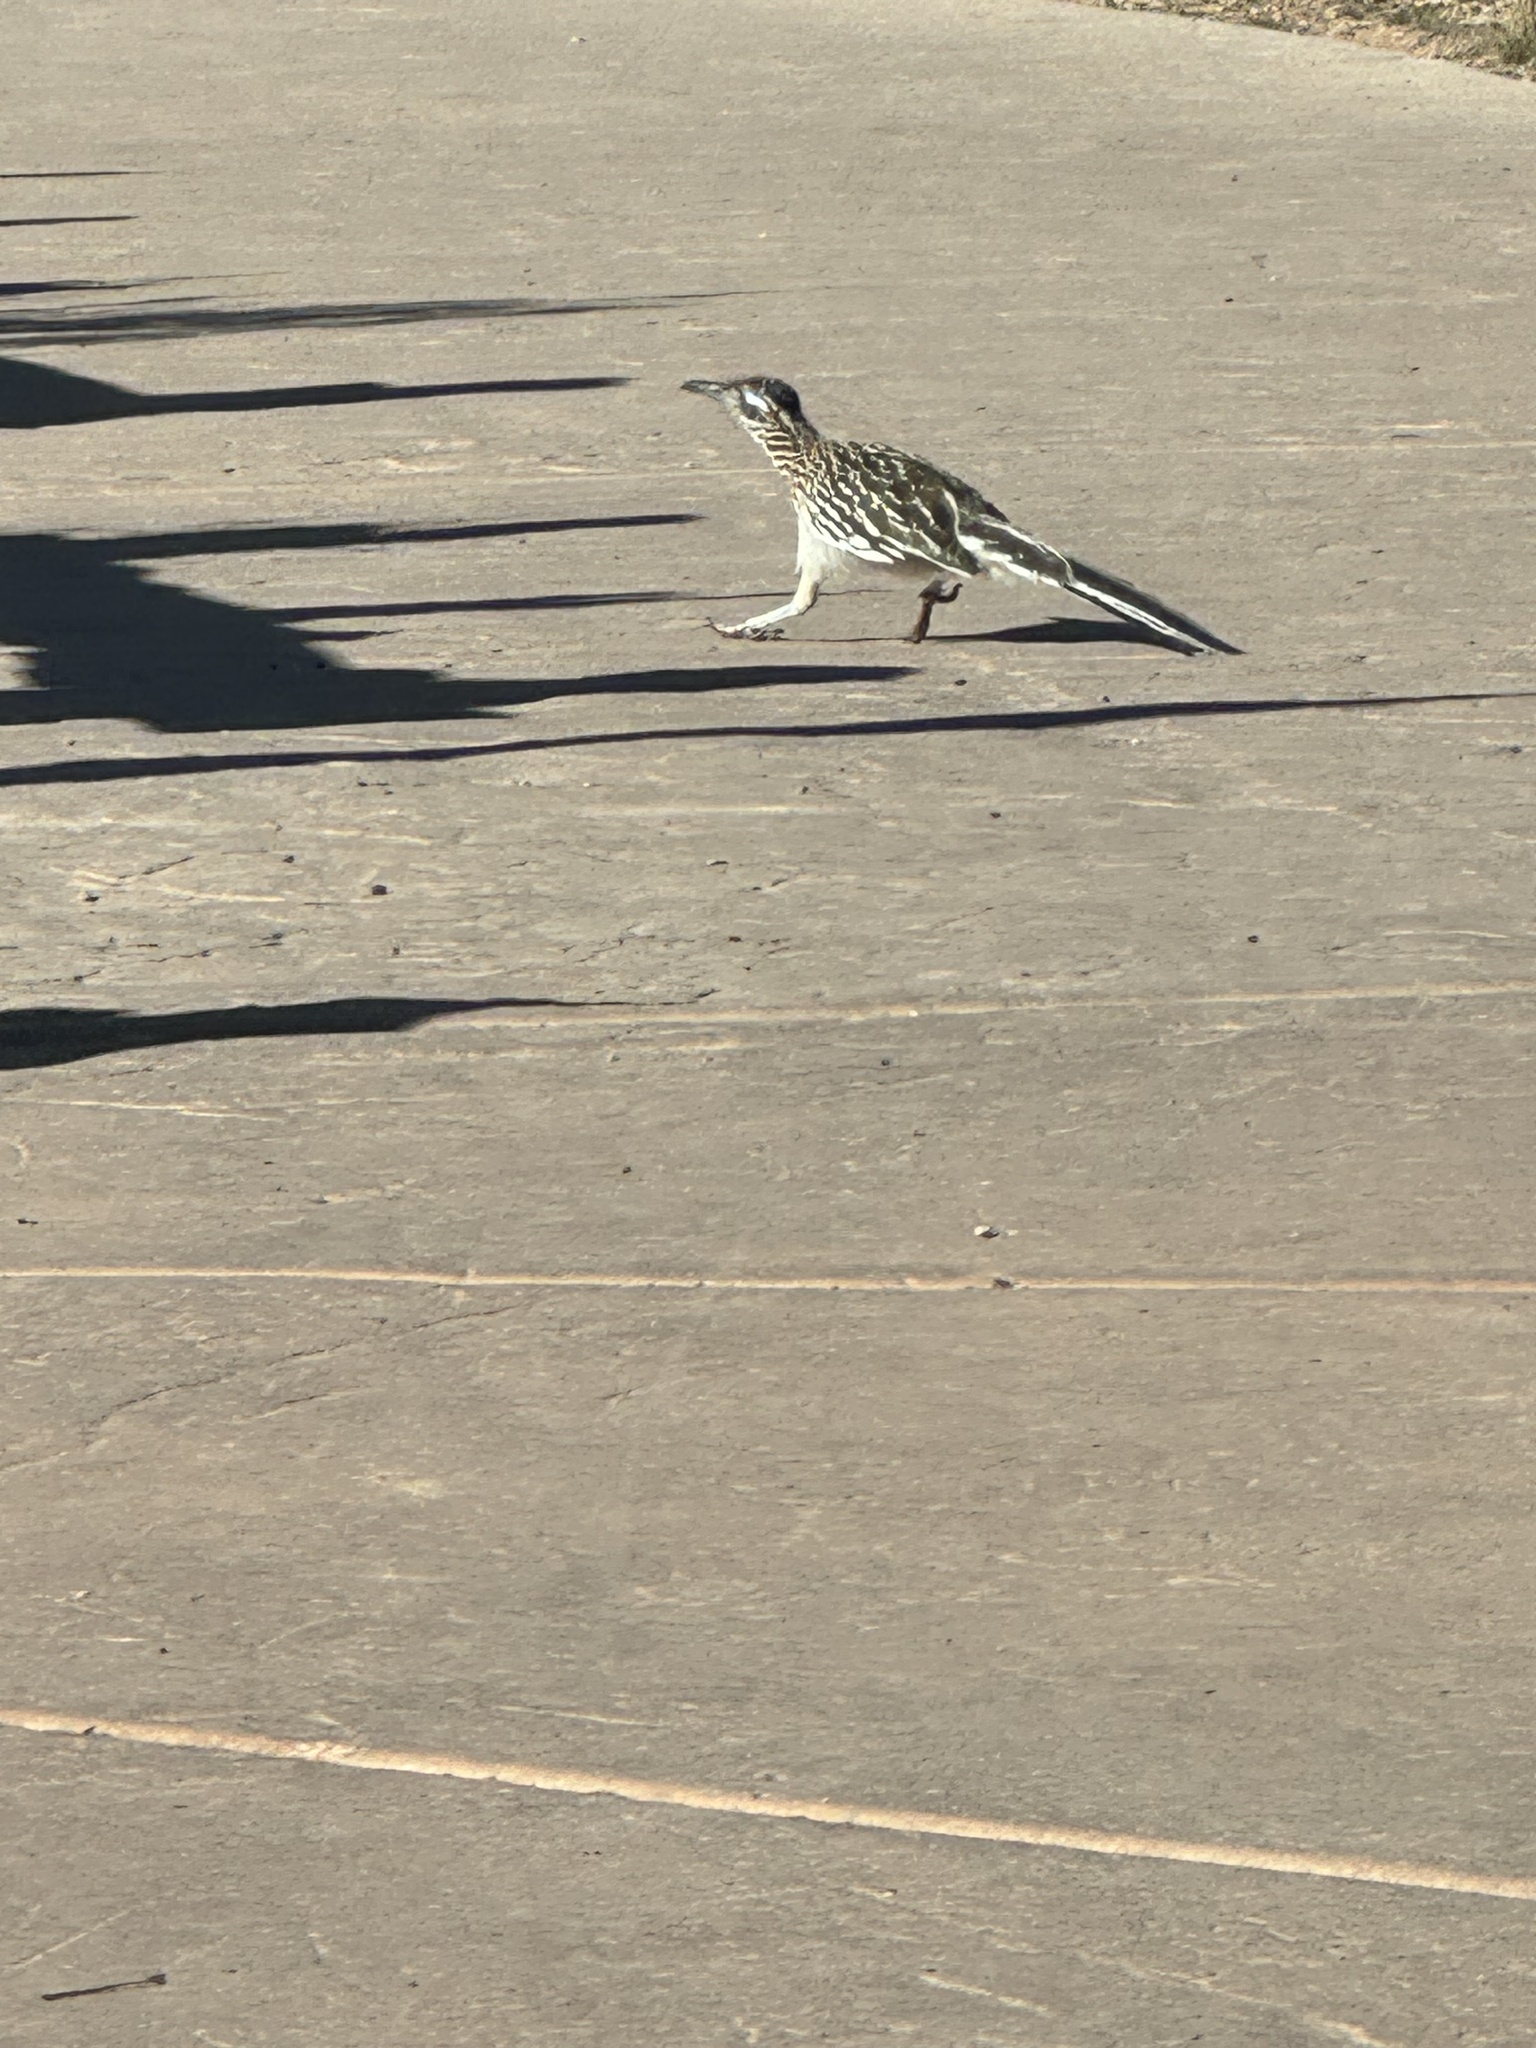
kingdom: Animalia
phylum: Chordata
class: Aves
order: Cuculiformes
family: Cuculidae
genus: Geococcyx
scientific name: Geococcyx californianus
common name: Greater roadrunner
